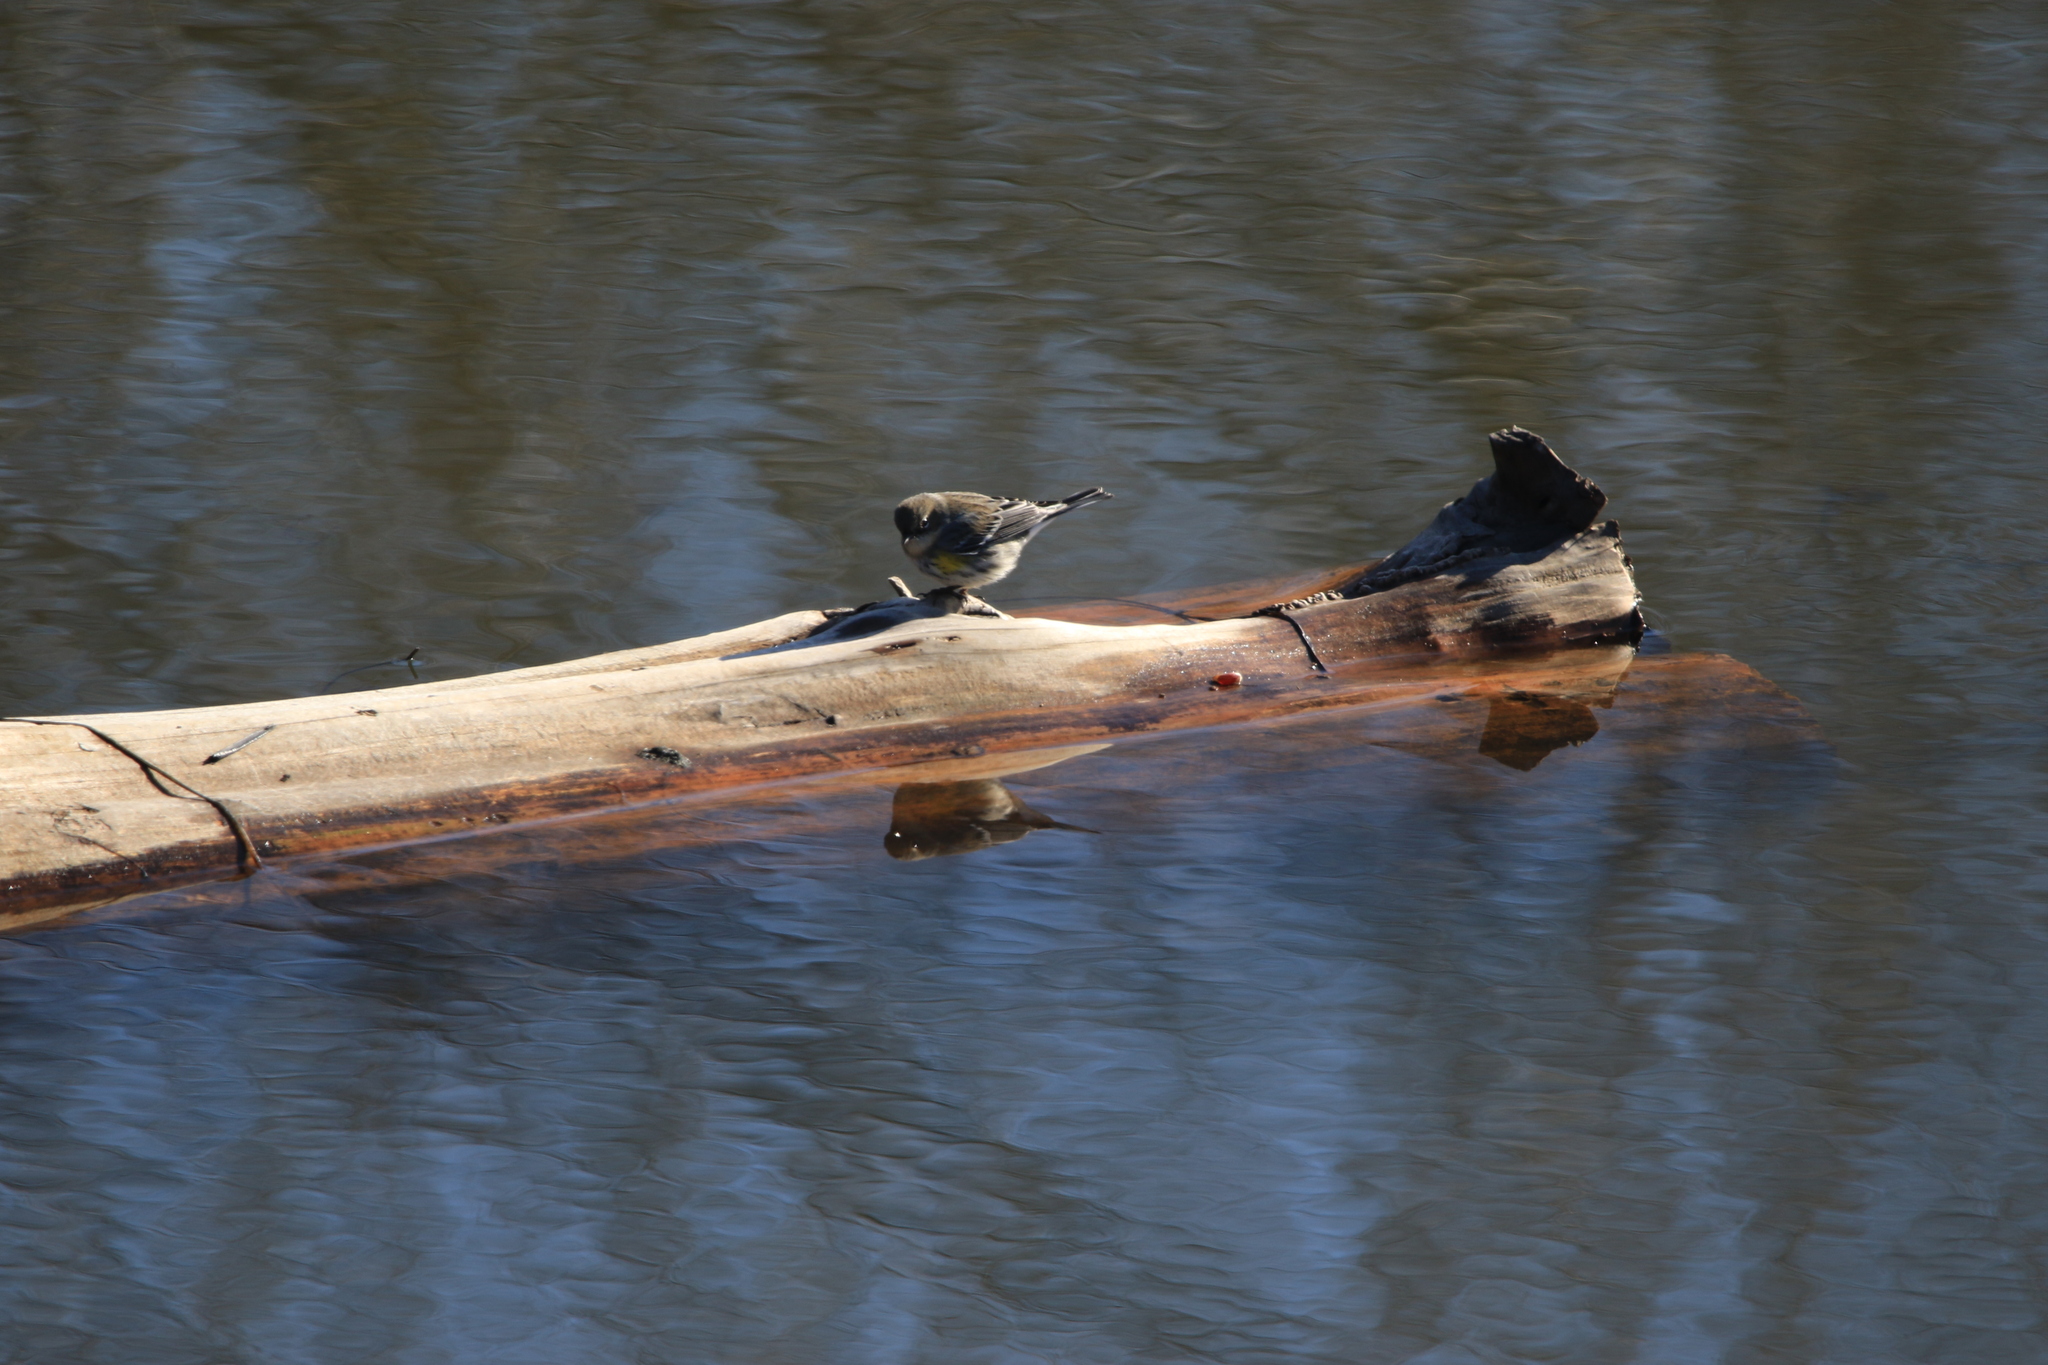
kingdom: Animalia
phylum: Chordata
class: Aves
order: Passeriformes
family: Parulidae
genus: Setophaga
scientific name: Setophaga coronata
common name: Myrtle warbler
